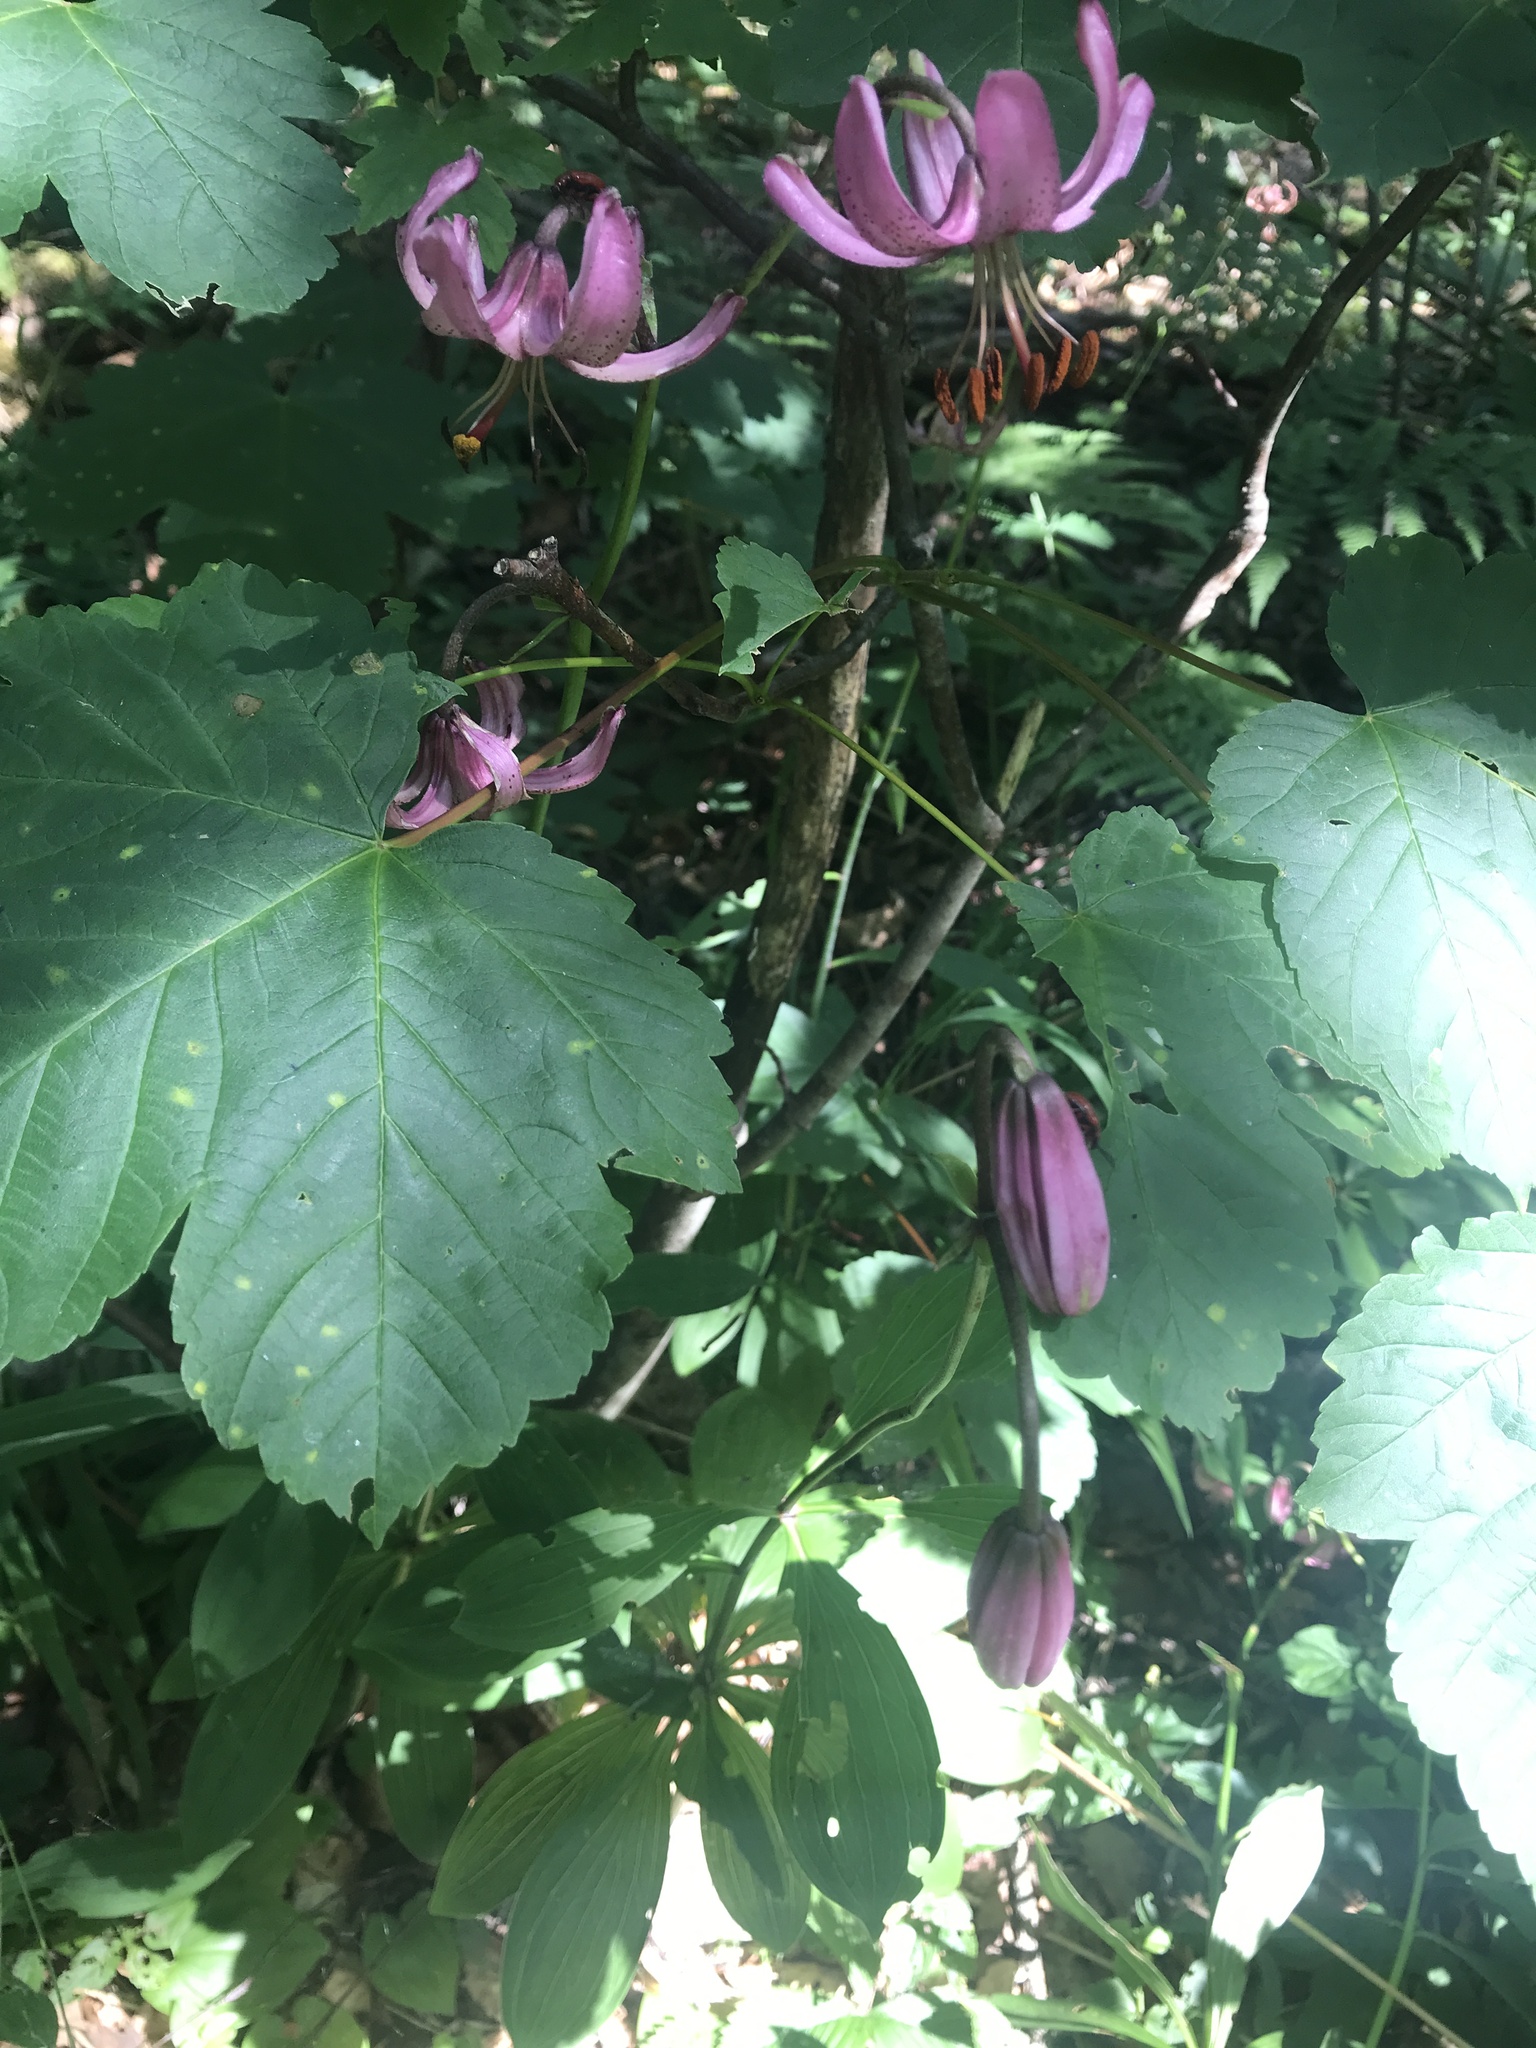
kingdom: Plantae
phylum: Tracheophyta
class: Liliopsida
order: Liliales
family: Liliaceae
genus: Lilium
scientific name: Lilium martagon
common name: Martagon lily
